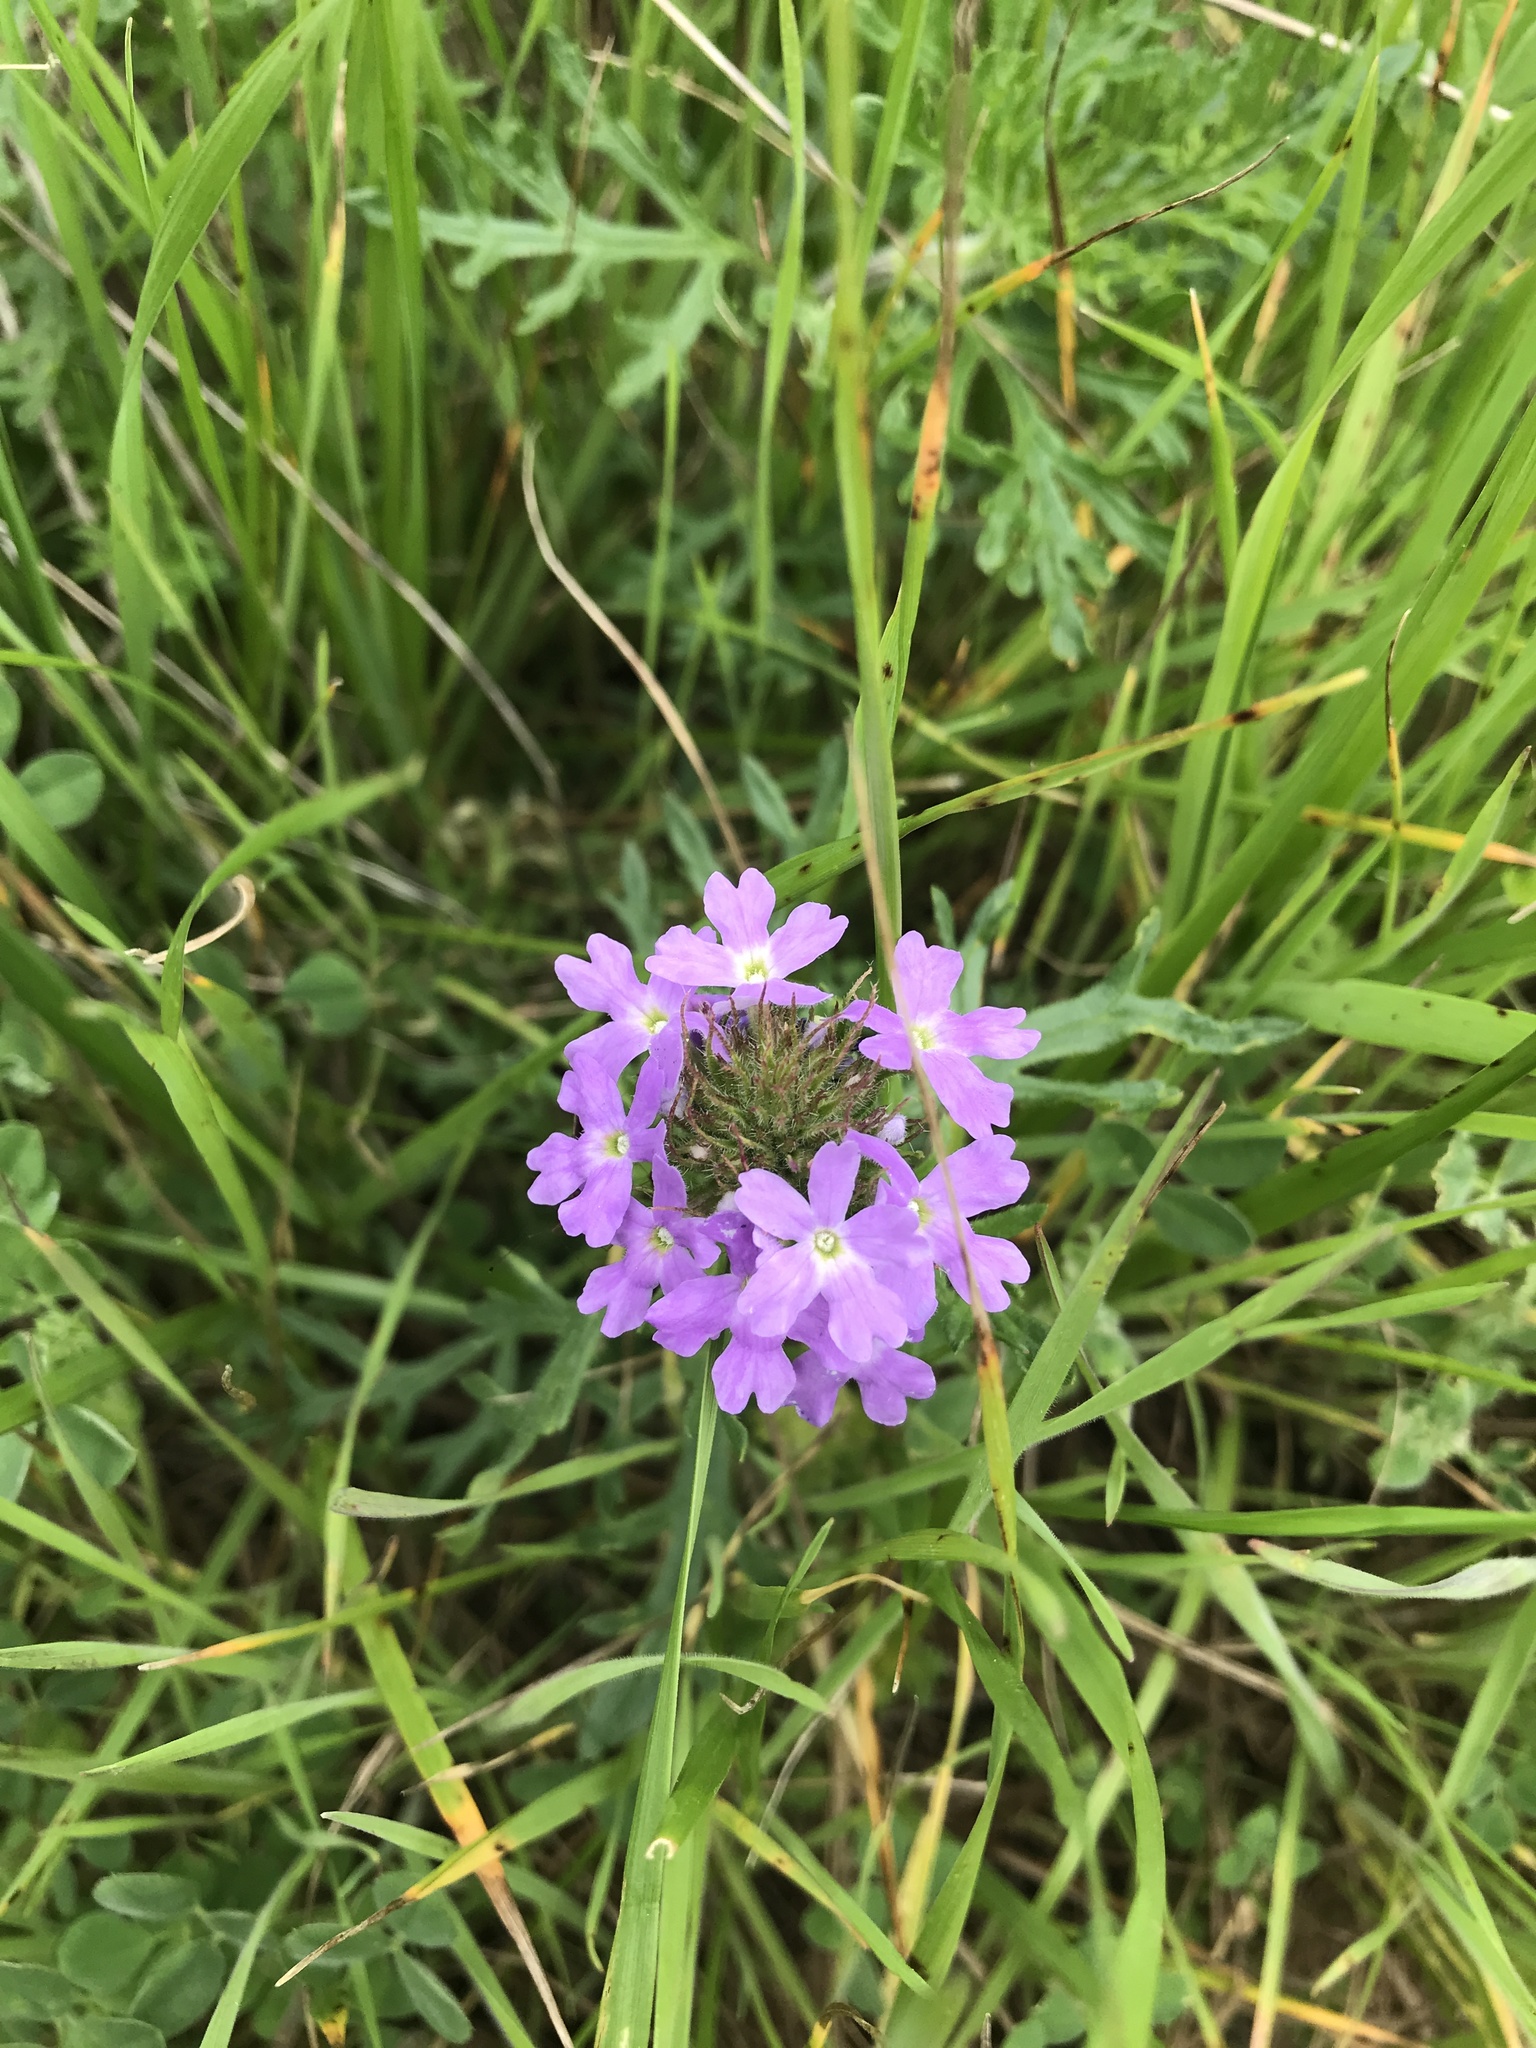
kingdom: Plantae
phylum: Tracheophyta
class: Magnoliopsida
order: Lamiales
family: Verbenaceae
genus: Verbena
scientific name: Verbena bipinnatifida
